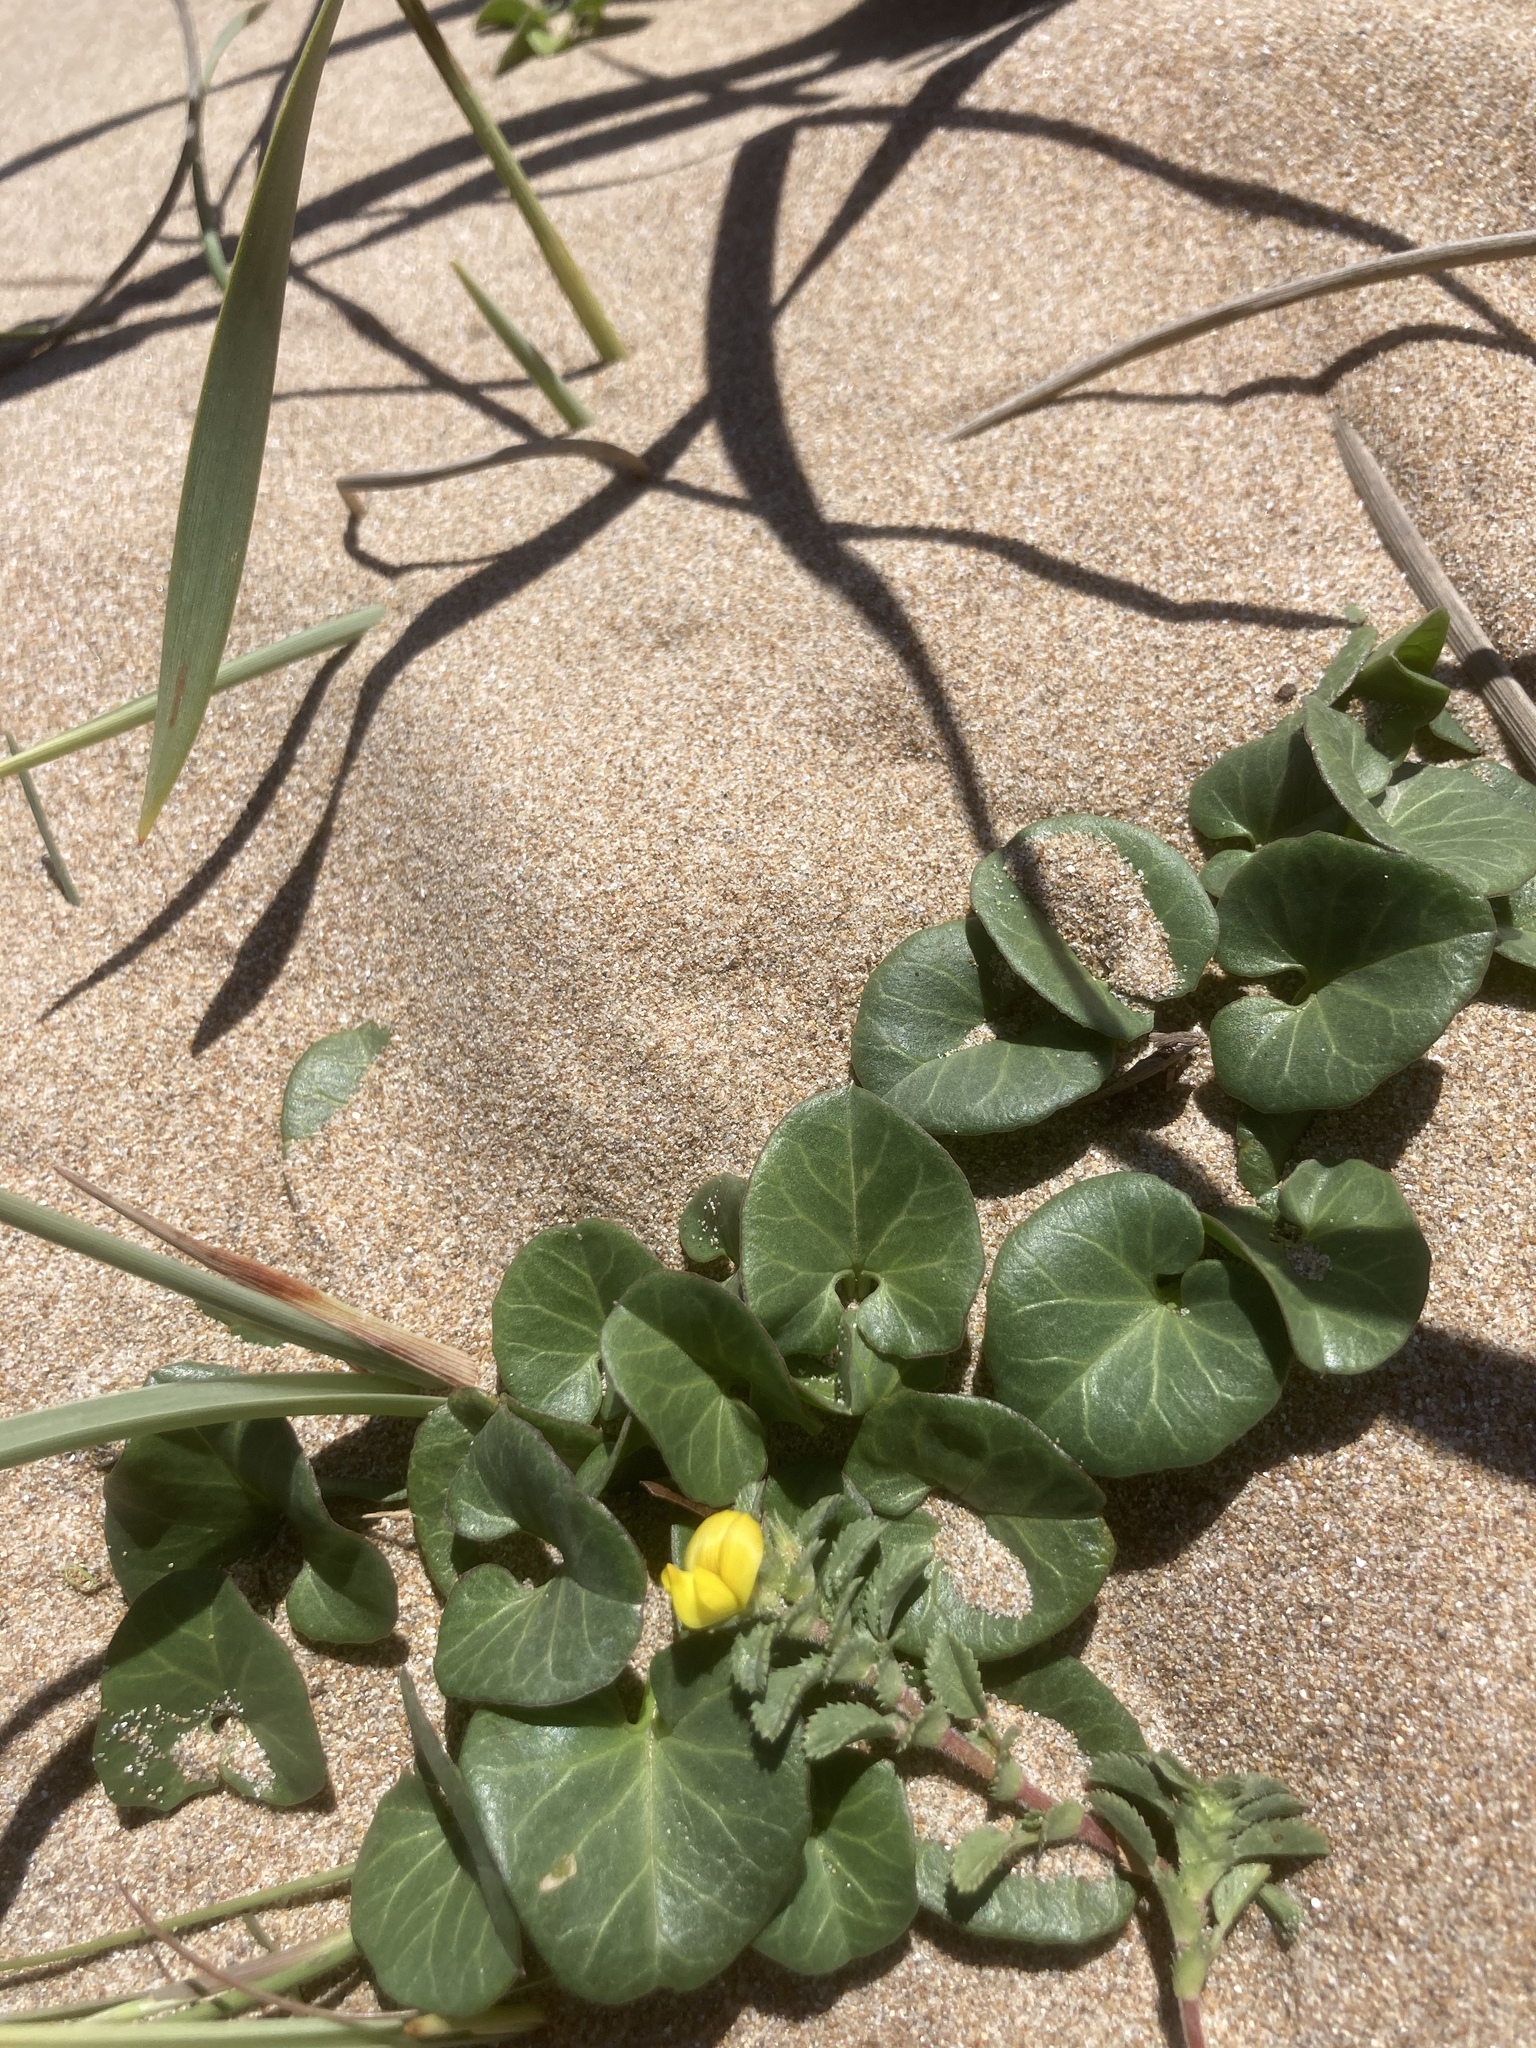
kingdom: Plantae
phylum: Tracheophyta
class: Magnoliopsida
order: Solanales
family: Convolvulaceae
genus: Calystegia
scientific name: Calystegia soldanella
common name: Sea bindweed
